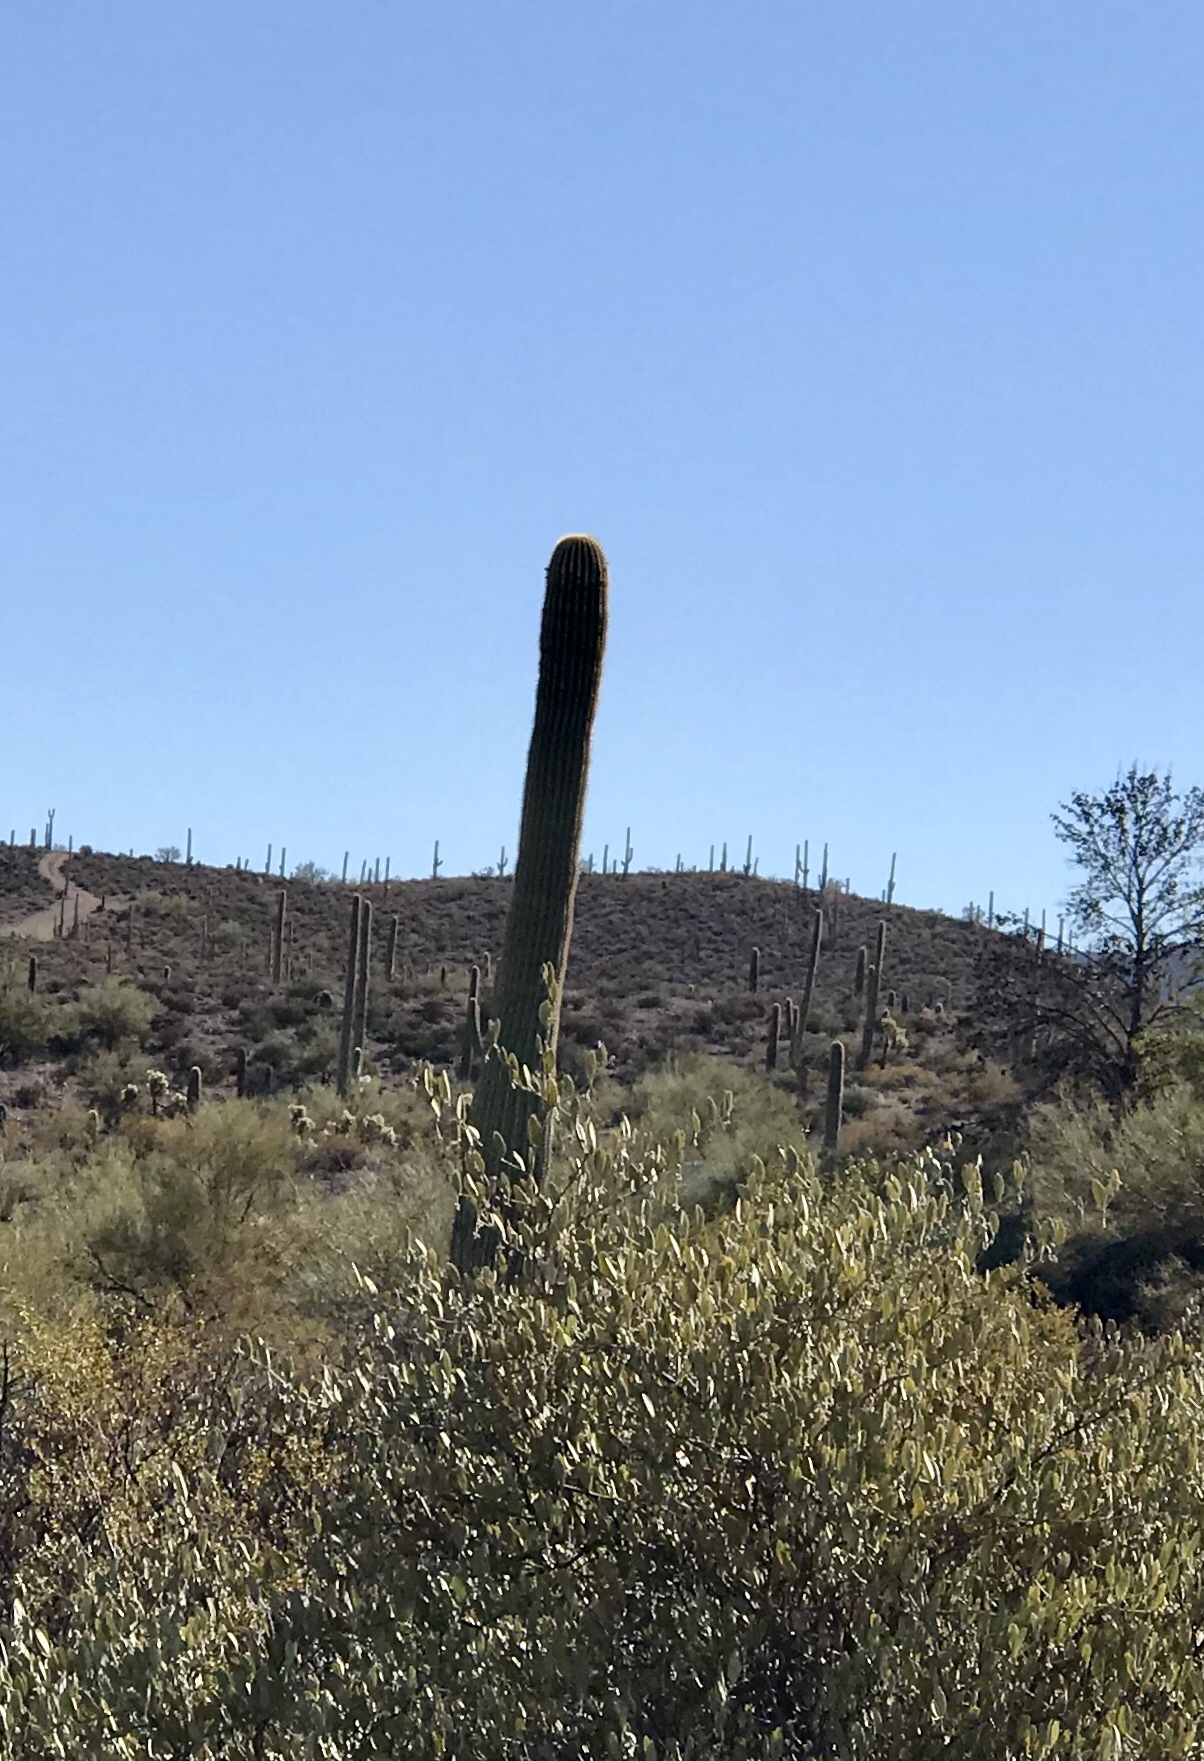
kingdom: Plantae
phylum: Tracheophyta
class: Magnoliopsida
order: Caryophyllales
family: Cactaceae
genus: Carnegiea
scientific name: Carnegiea gigantea
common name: Saguaro
